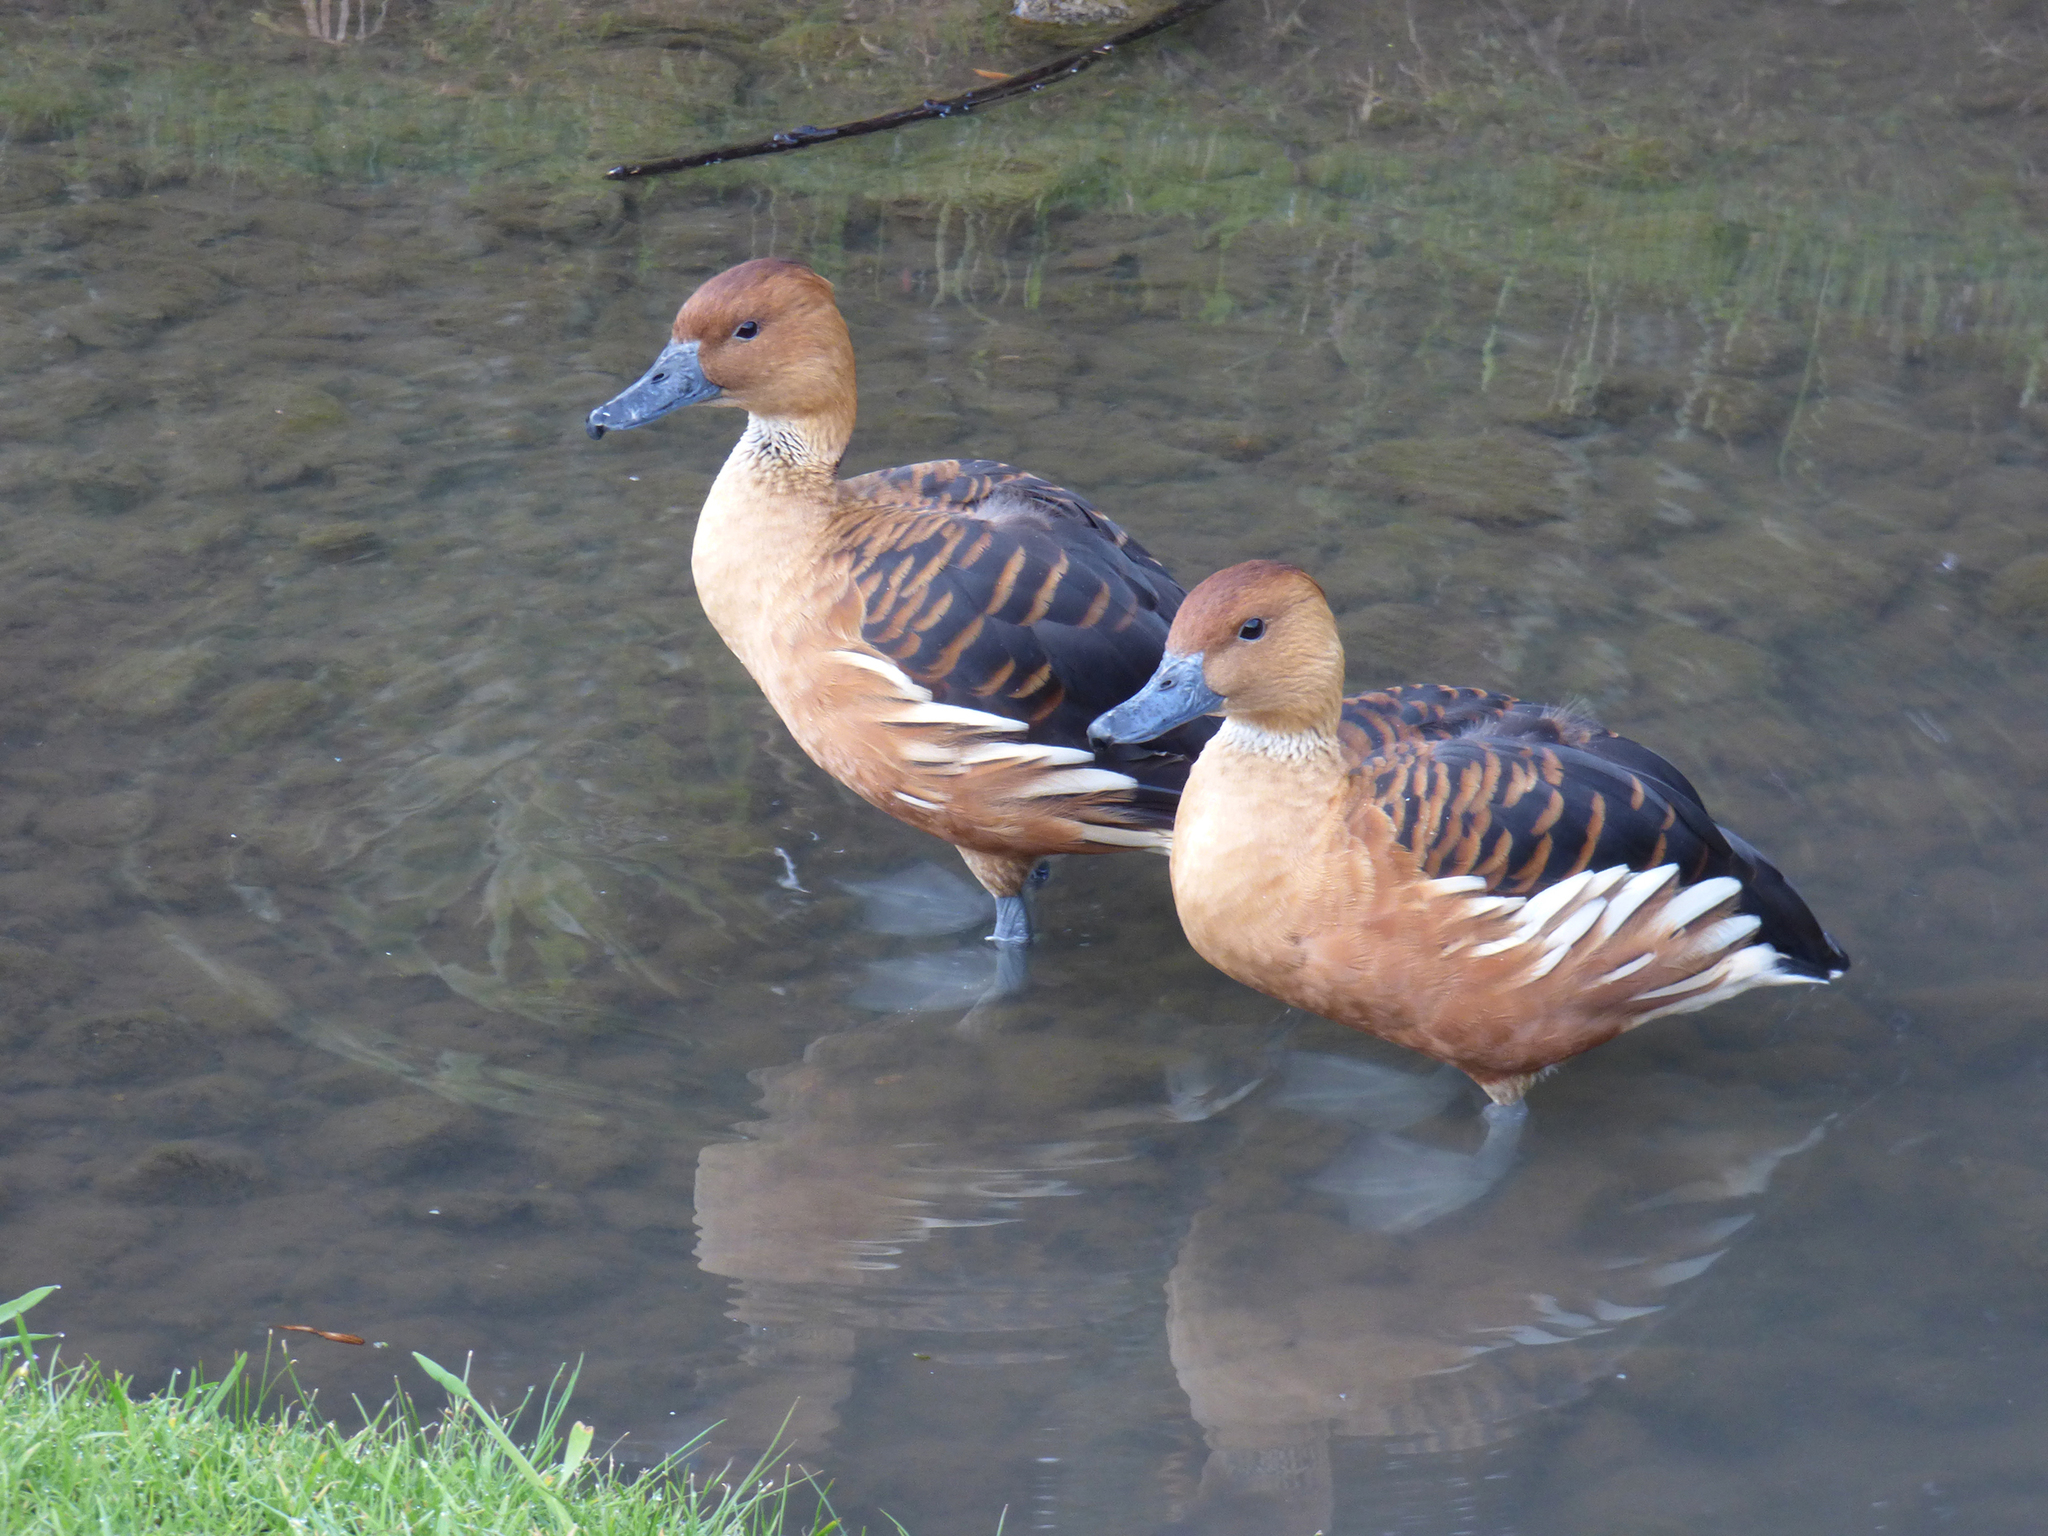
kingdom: Animalia
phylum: Chordata
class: Aves
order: Anseriformes
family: Anatidae
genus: Dendrocygna
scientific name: Dendrocygna bicolor
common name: Fulvous whistling duck
